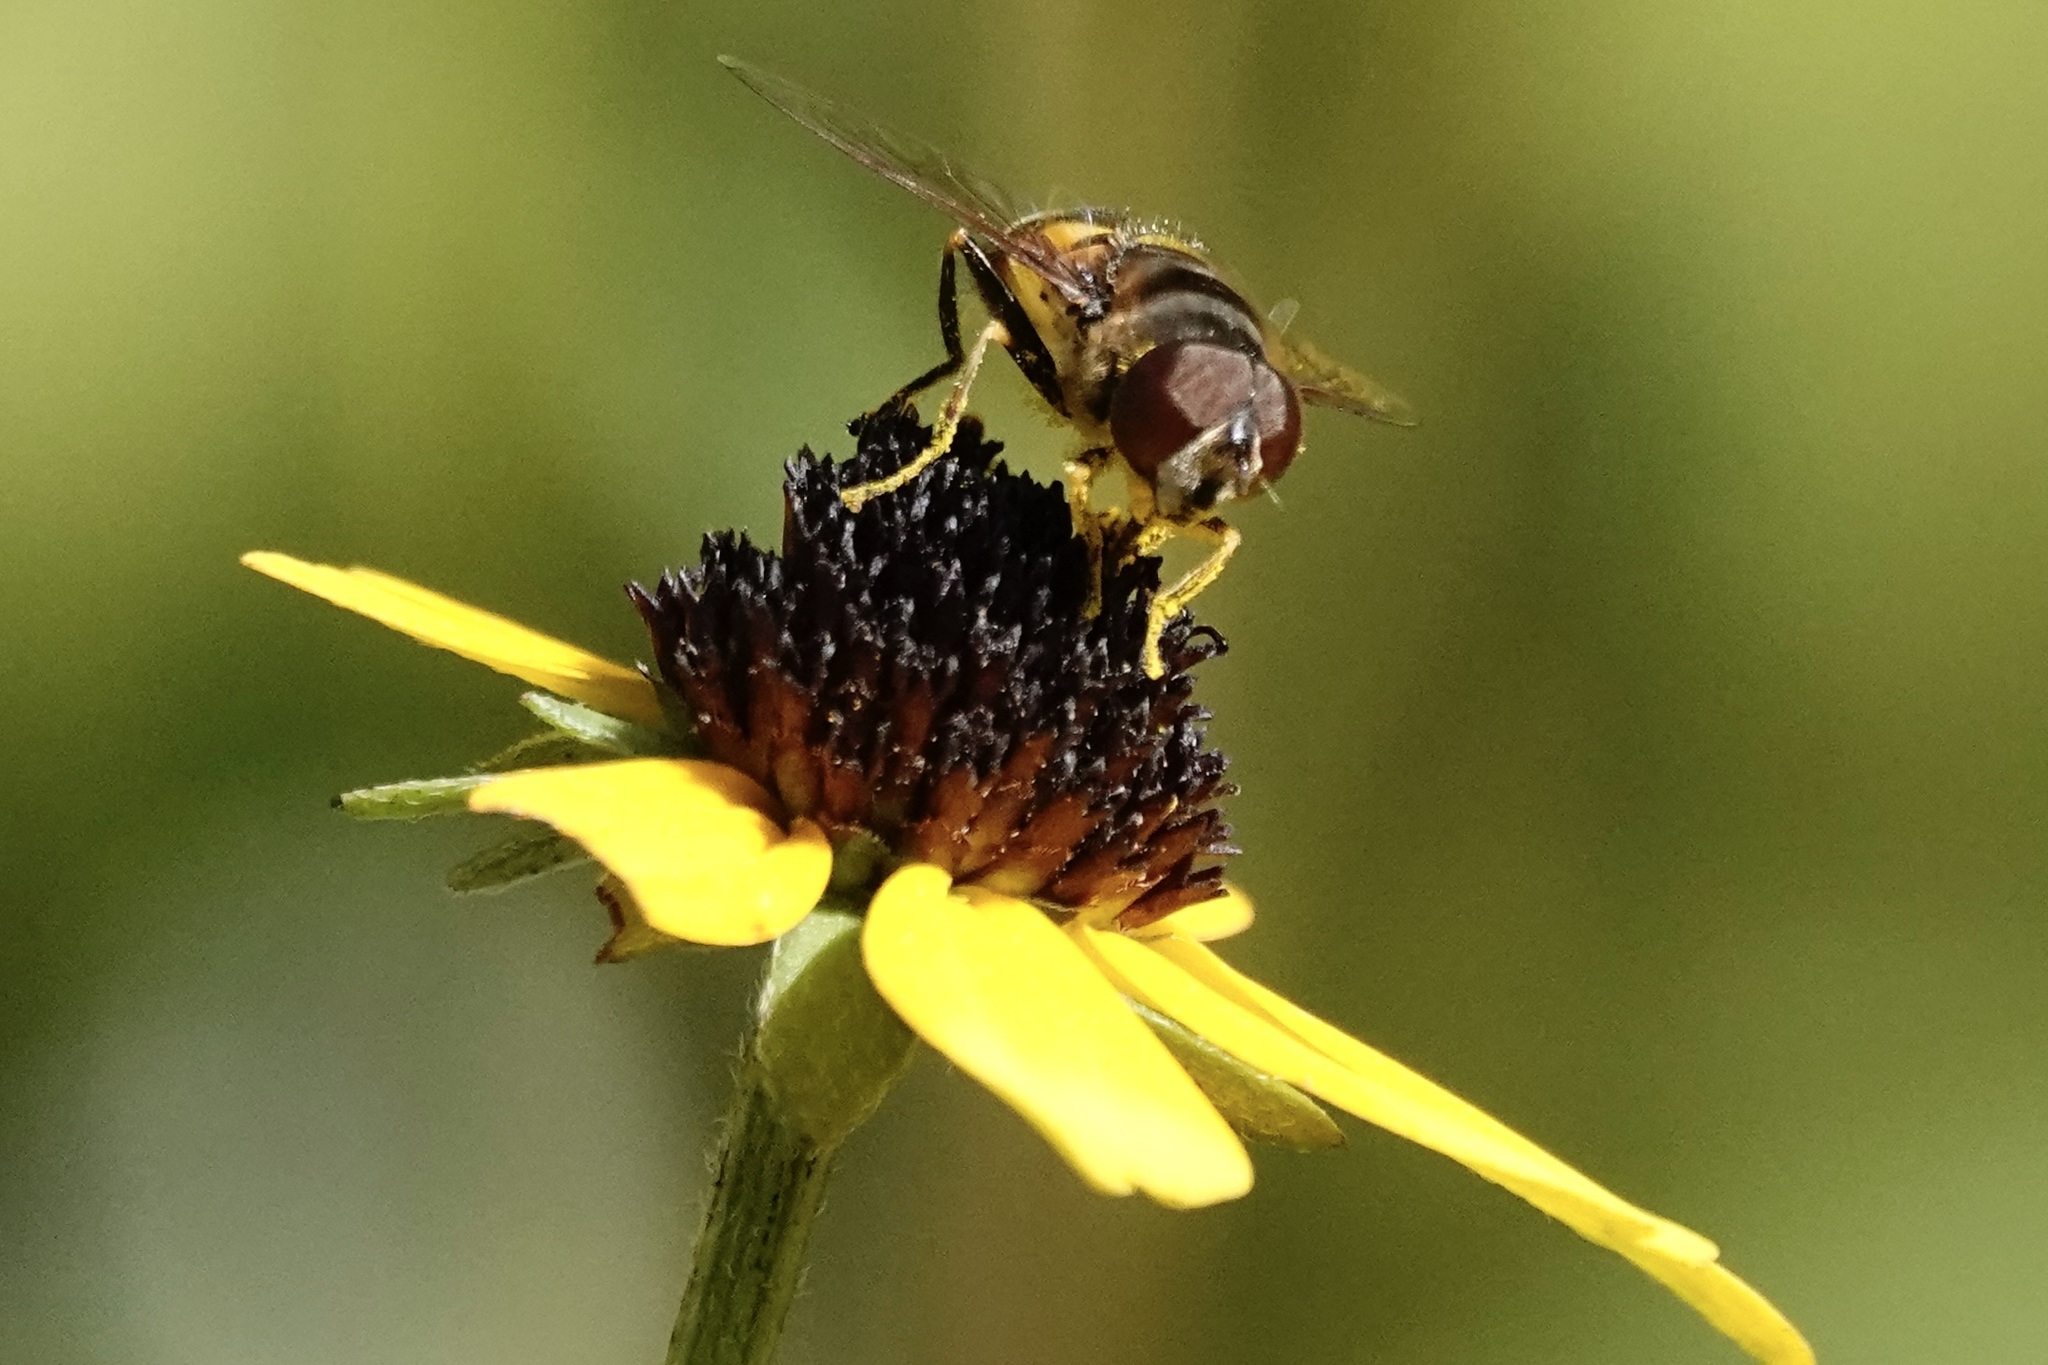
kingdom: Animalia
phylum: Arthropoda
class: Insecta
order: Diptera
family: Syrphidae
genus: Eristalis
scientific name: Eristalis transversa
